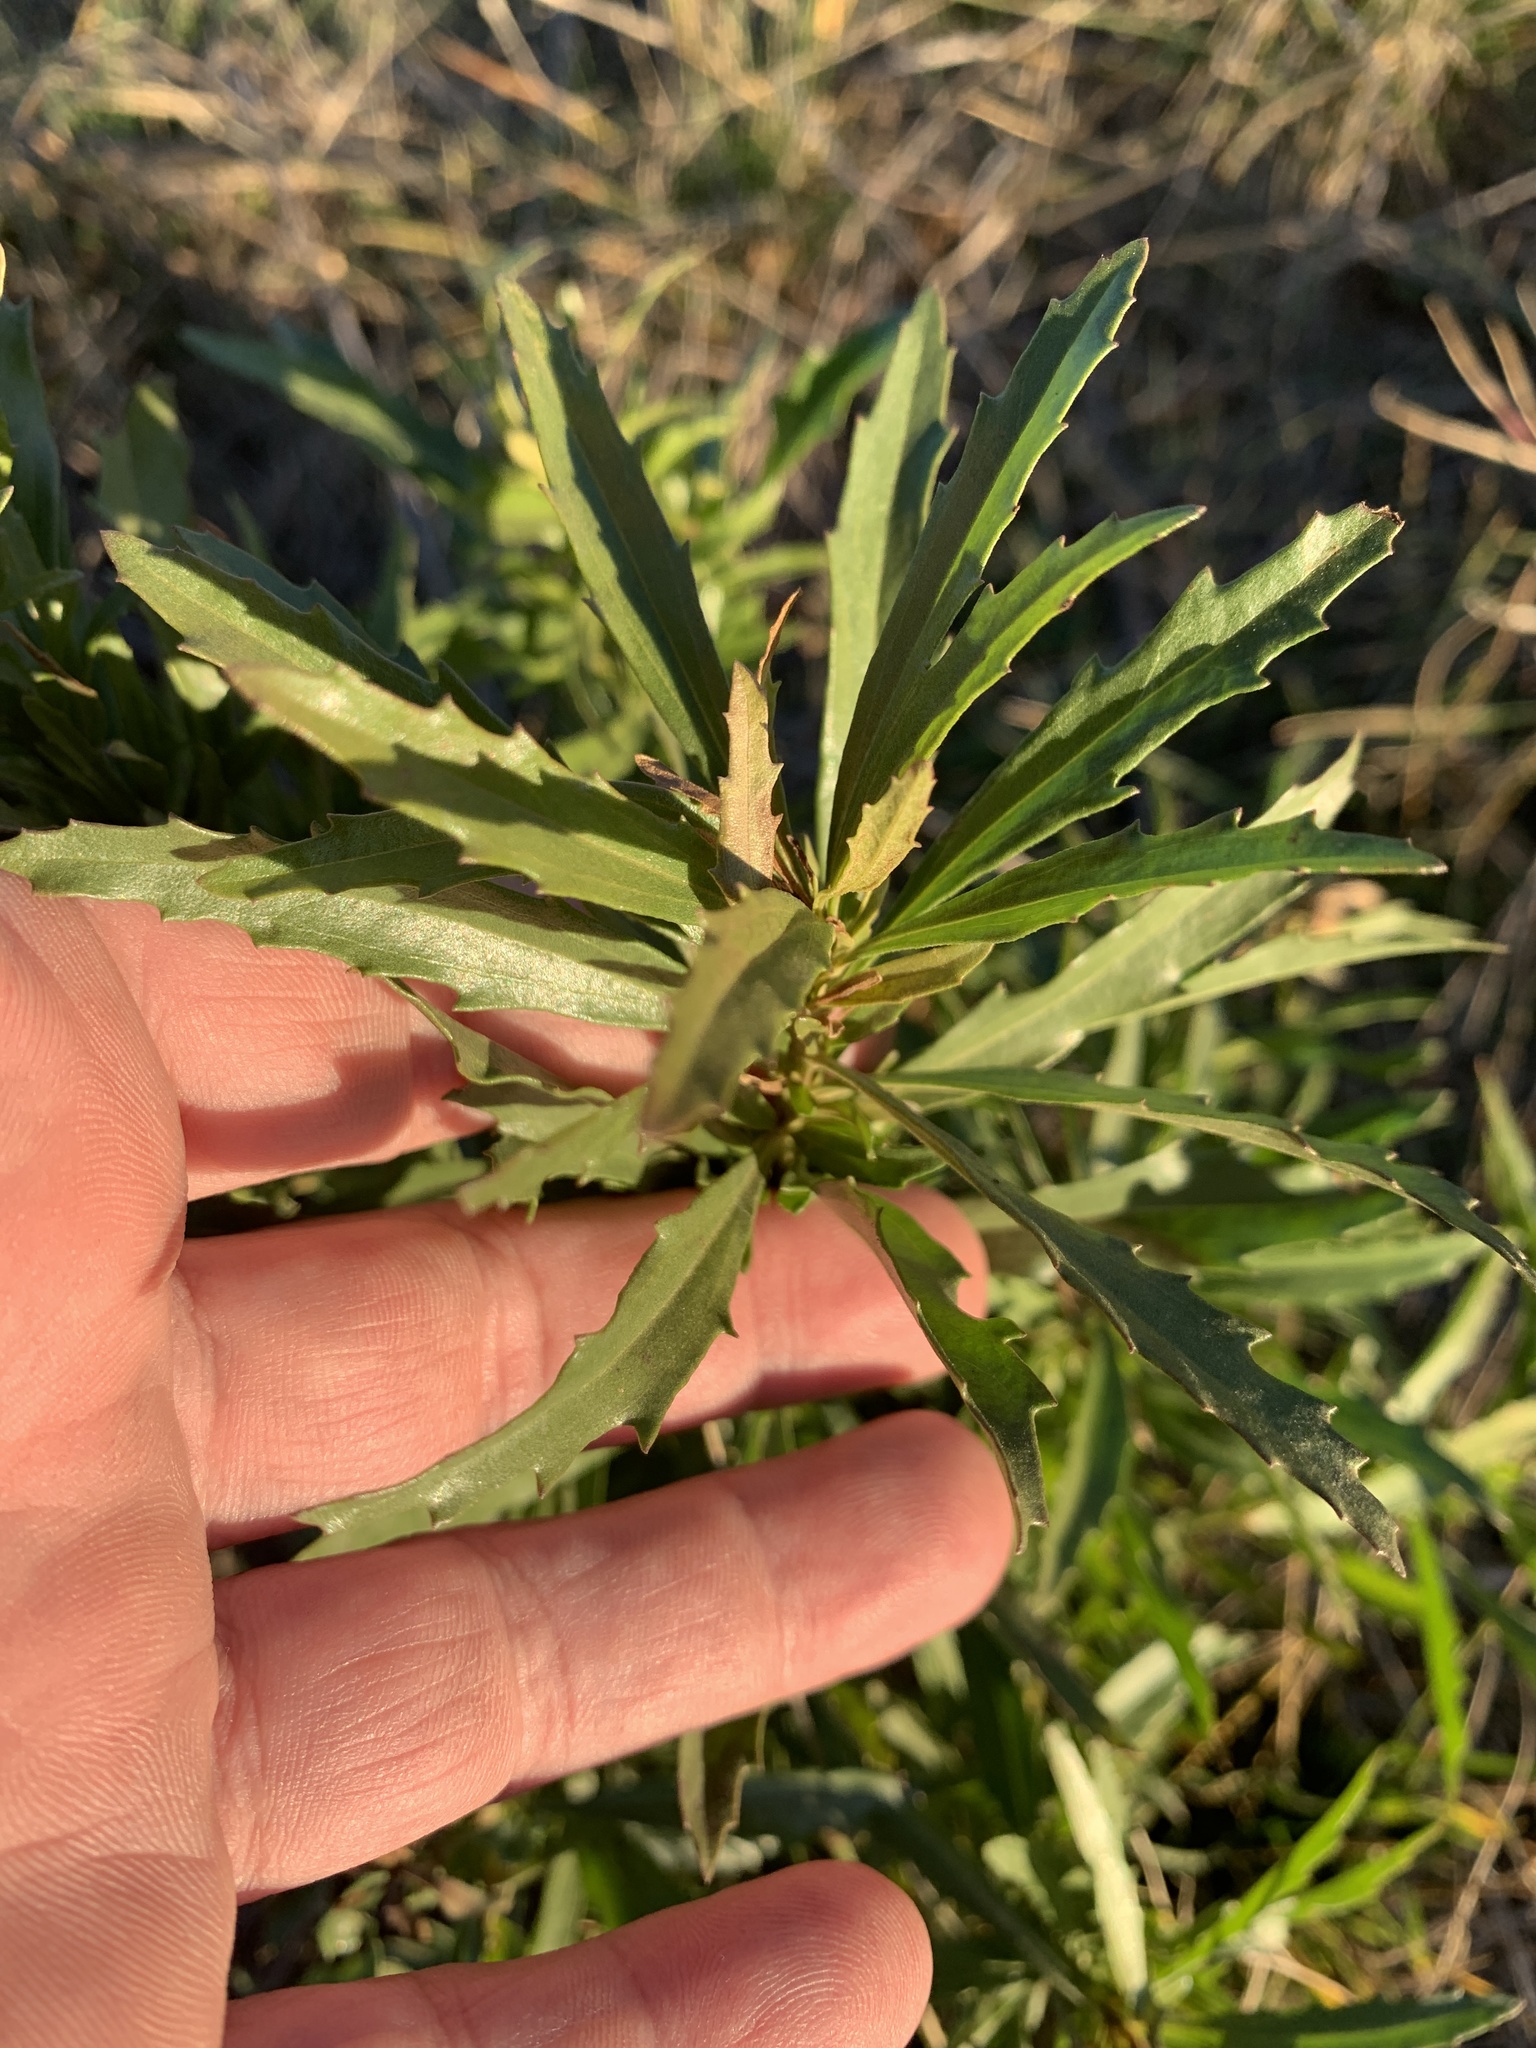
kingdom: Plantae
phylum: Tracheophyta
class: Magnoliopsida
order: Myrtales
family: Onagraceae
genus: Oenothera
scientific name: Oenothera
